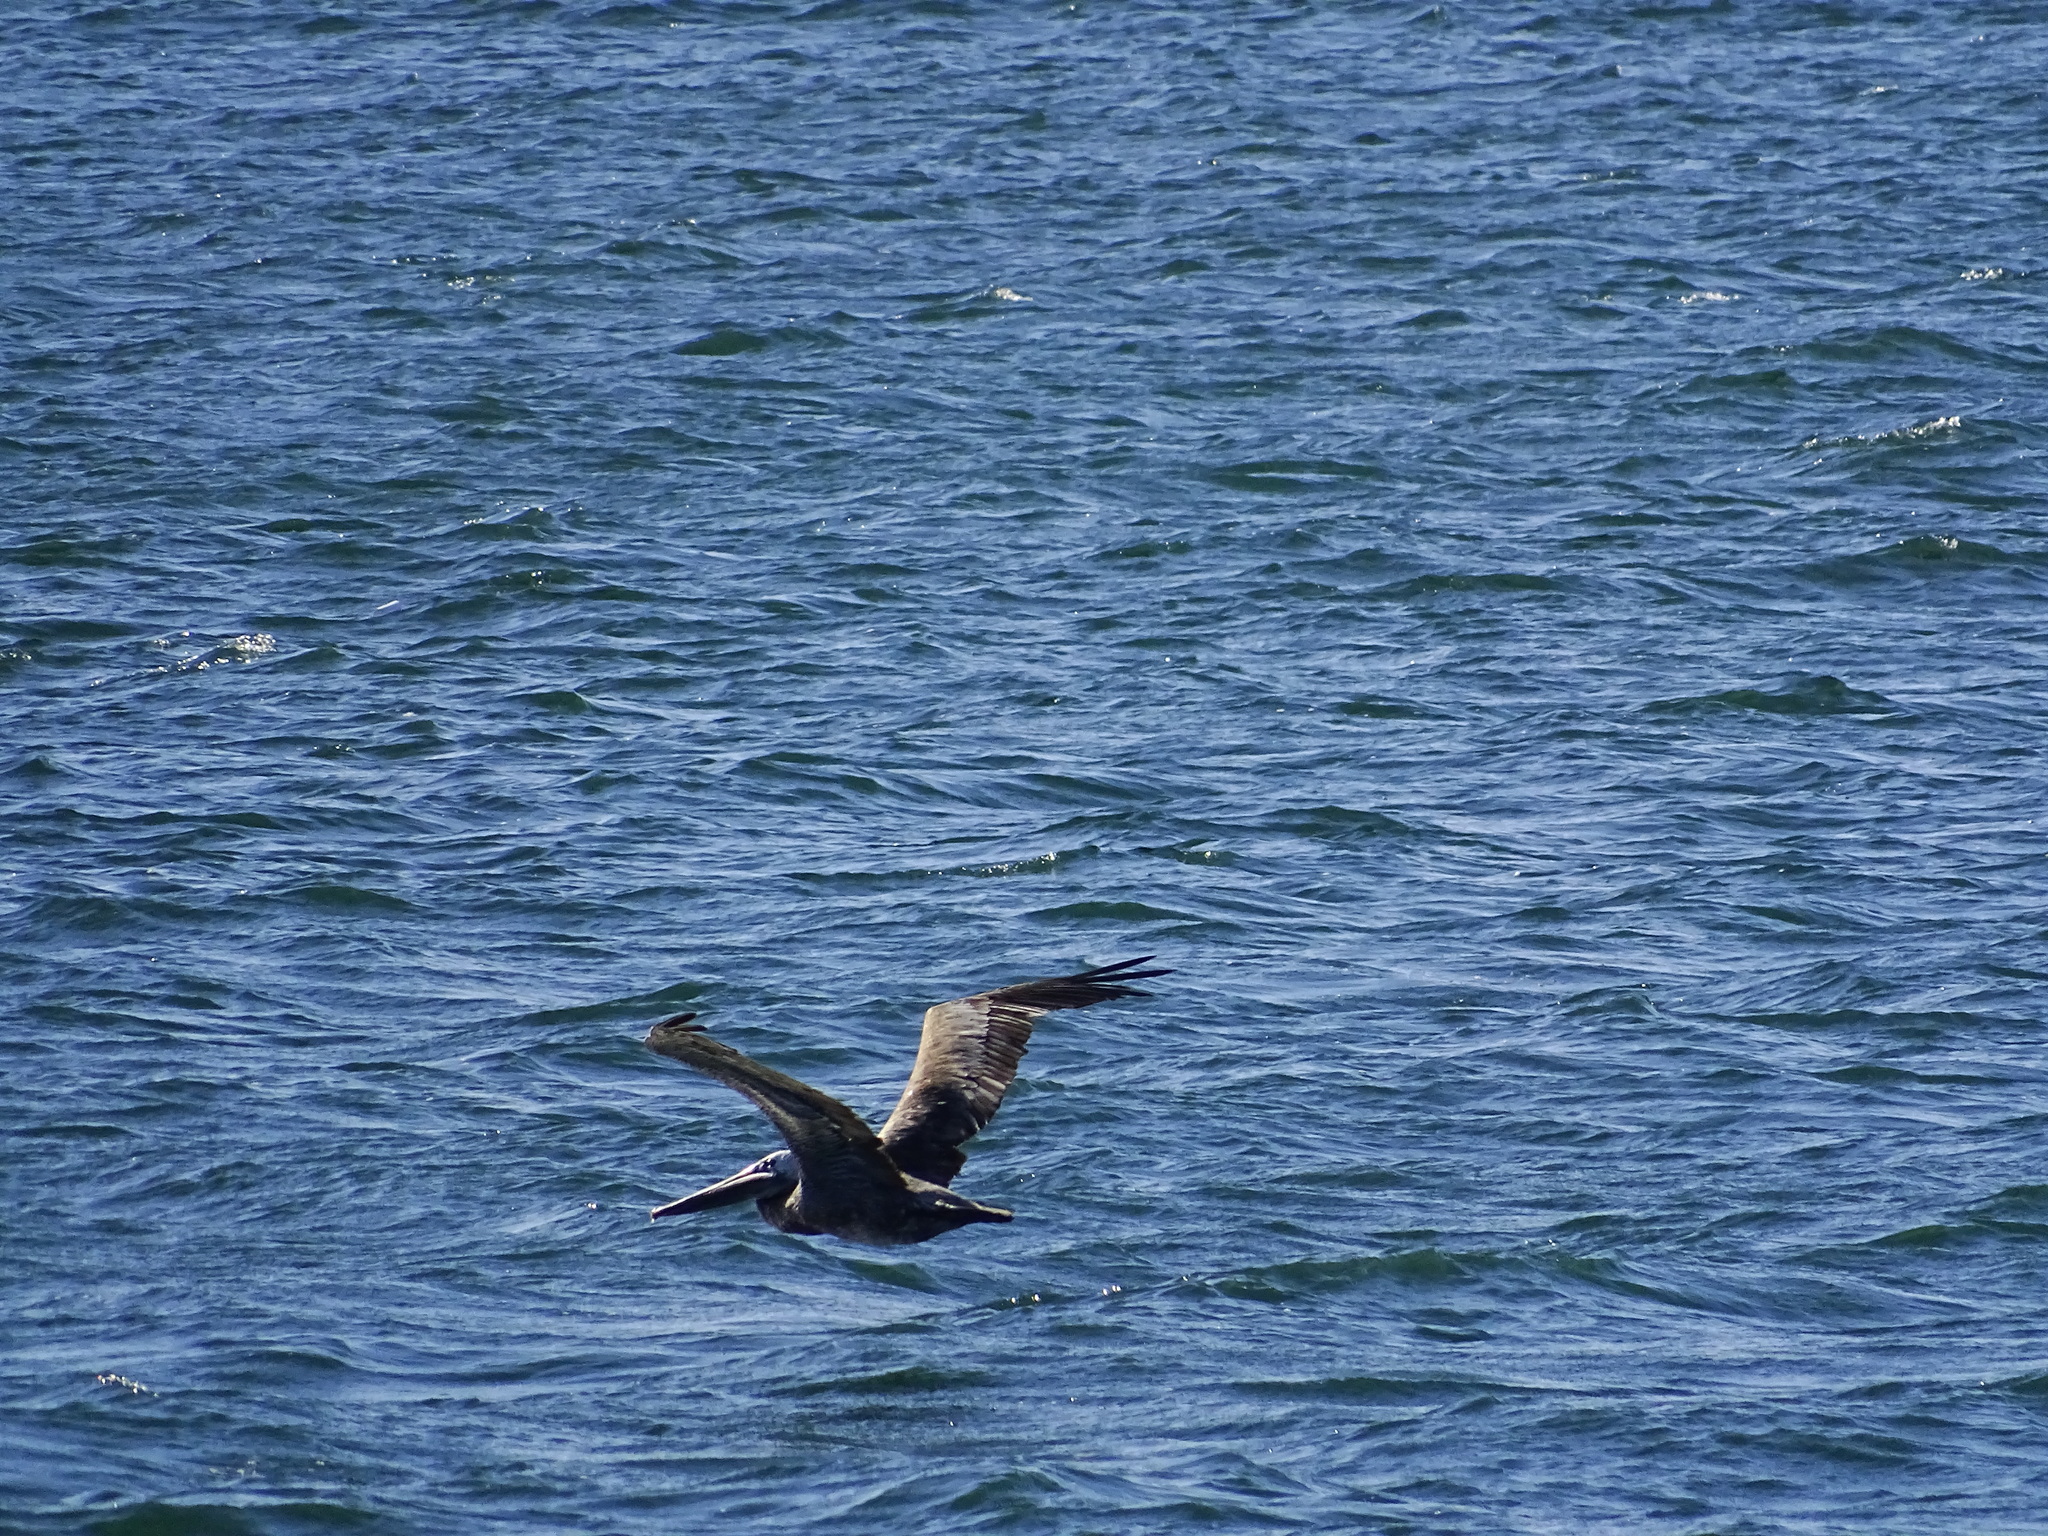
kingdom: Animalia
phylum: Chordata
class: Aves
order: Pelecaniformes
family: Pelecanidae
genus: Pelecanus
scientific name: Pelecanus occidentalis
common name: Brown pelican
